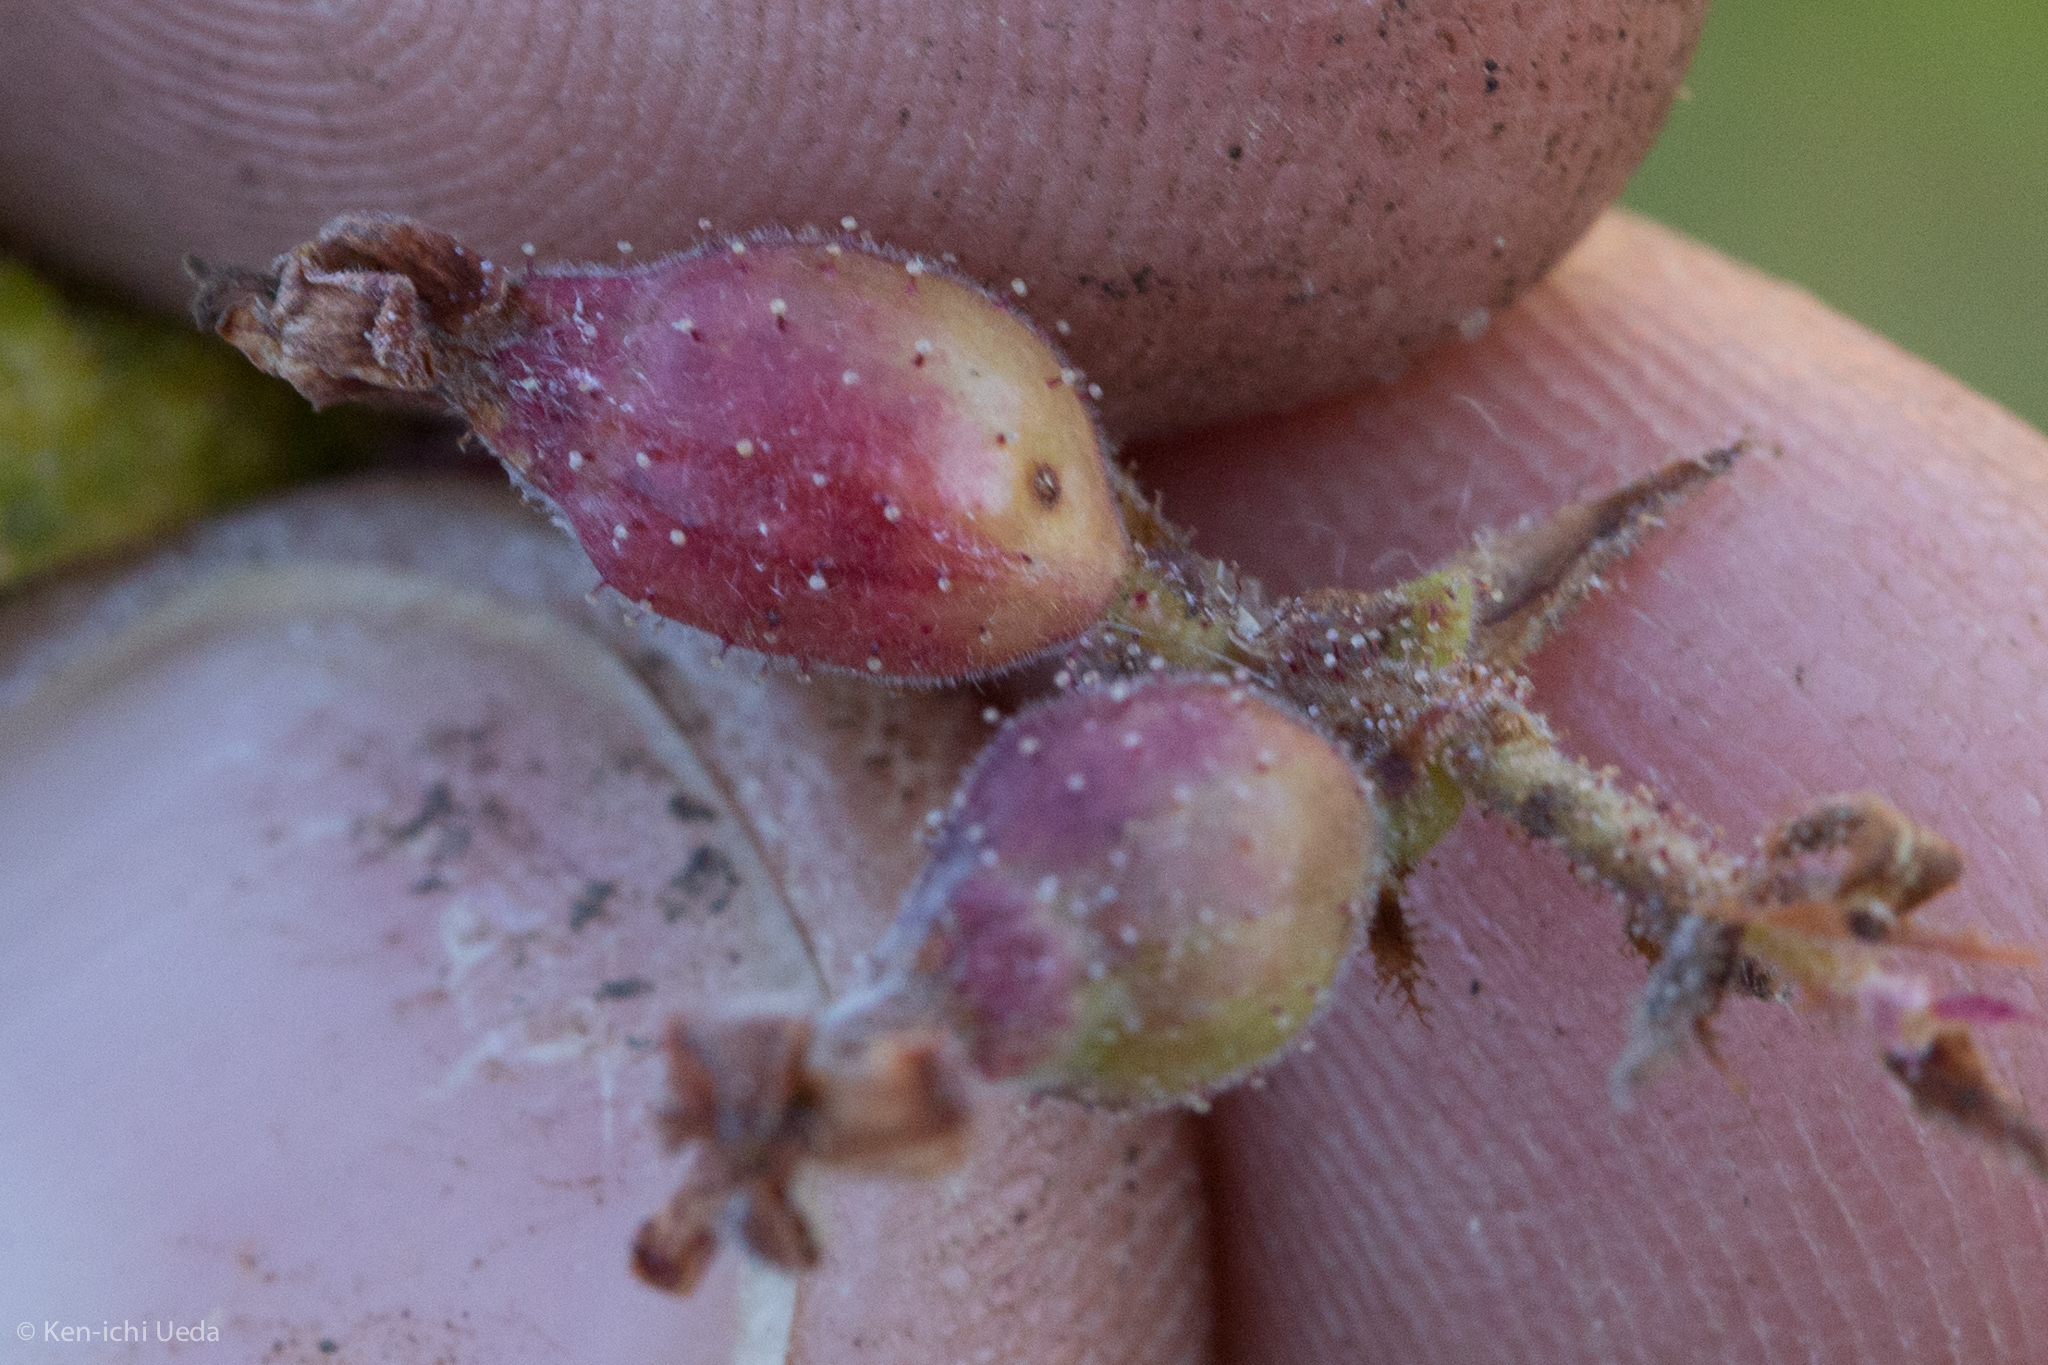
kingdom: Plantae
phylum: Tracheophyta
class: Magnoliopsida
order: Saxifragales
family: Grossulariaceae
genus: Ribes
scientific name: Ribes malvaceum
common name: Chaparral currant
